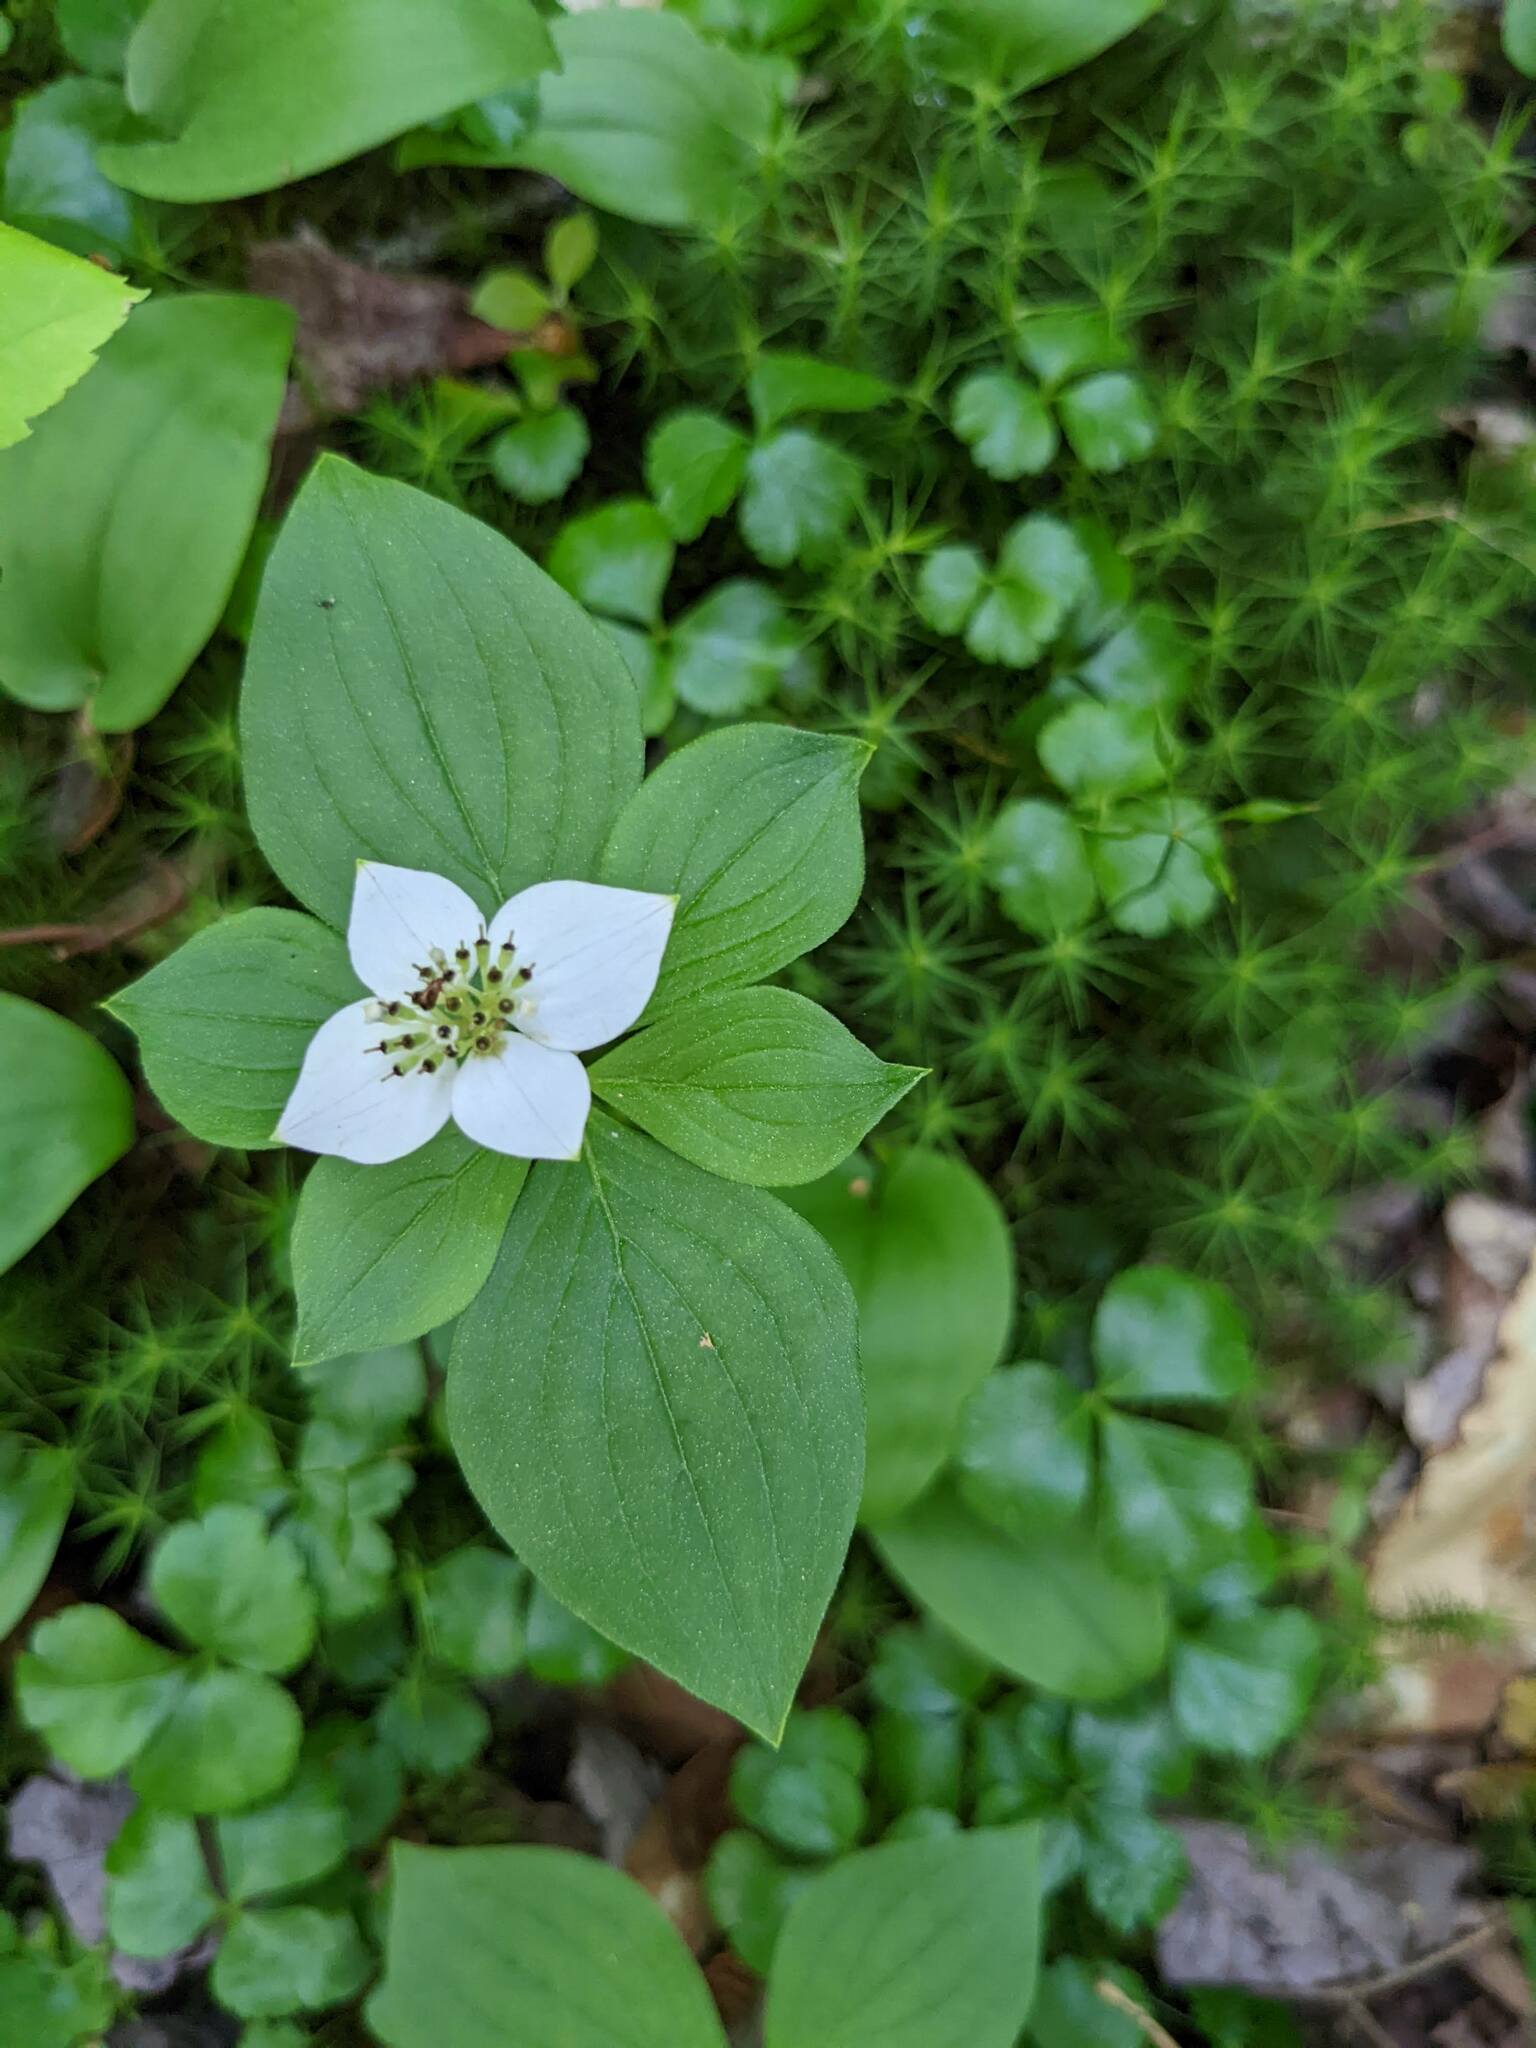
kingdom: Plantae
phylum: Tracheophyta
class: Magnoliopsida
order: Cornales
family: Cornaceae
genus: Cornus
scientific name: Cornus canadensis
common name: Creeping dogwood
